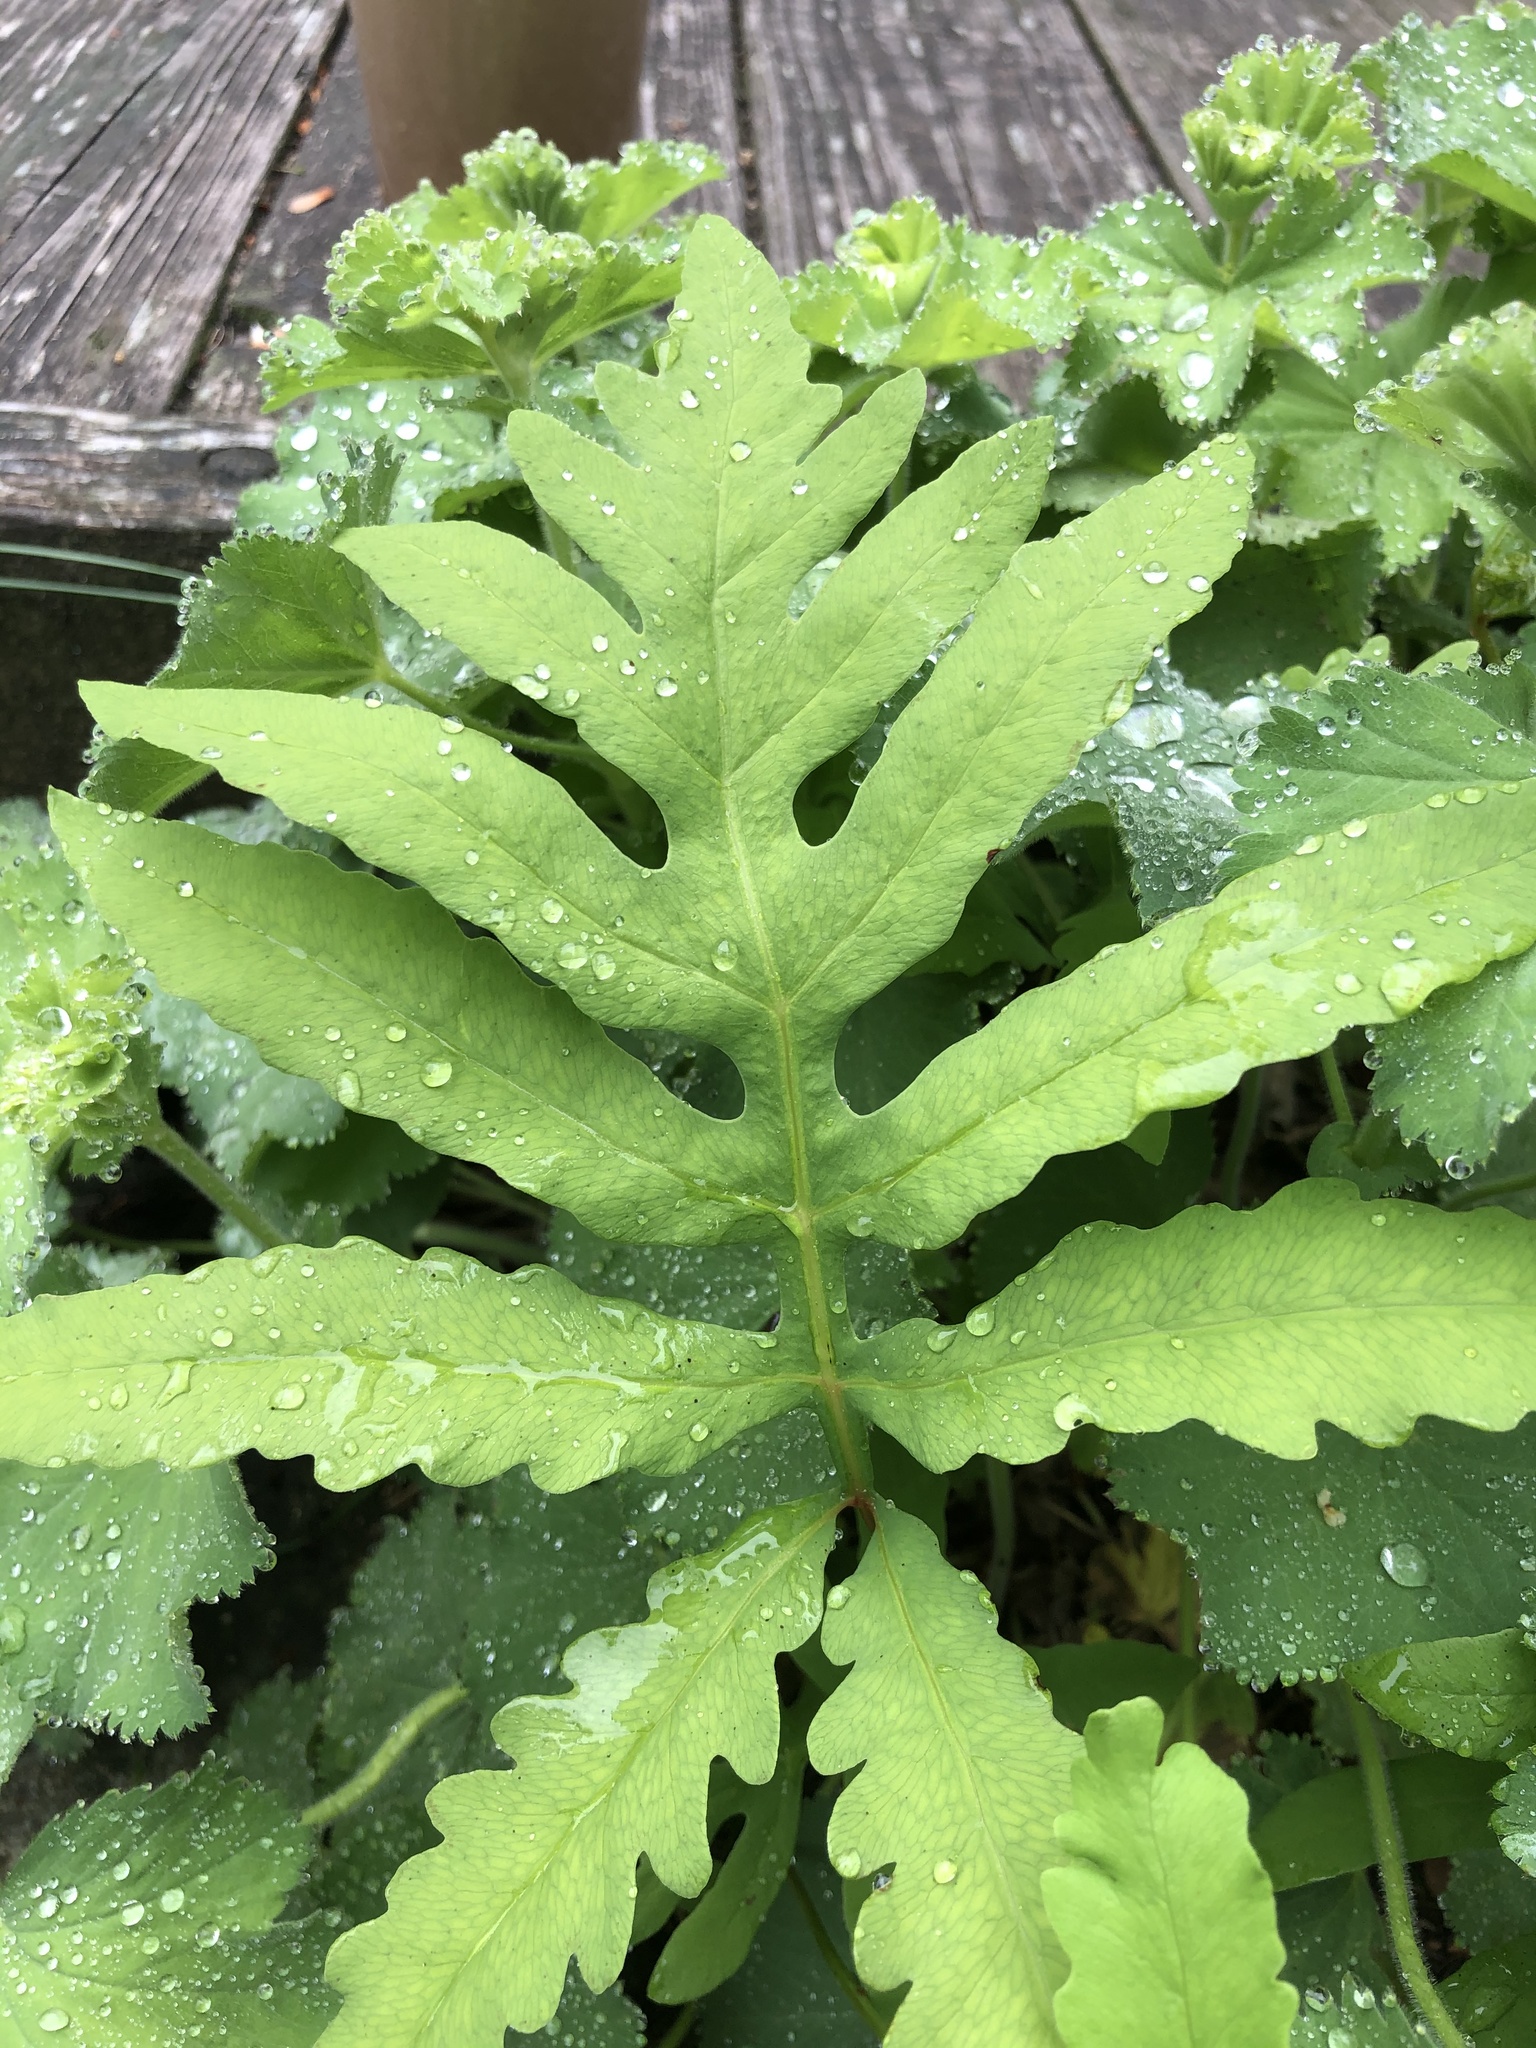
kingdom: Plantae
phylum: Tracheophyta
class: Polypodiopsida
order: Polypodiales
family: Onocleaceae
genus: Onoclea
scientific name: Onoclea sensibilis
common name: Sensitive fern
